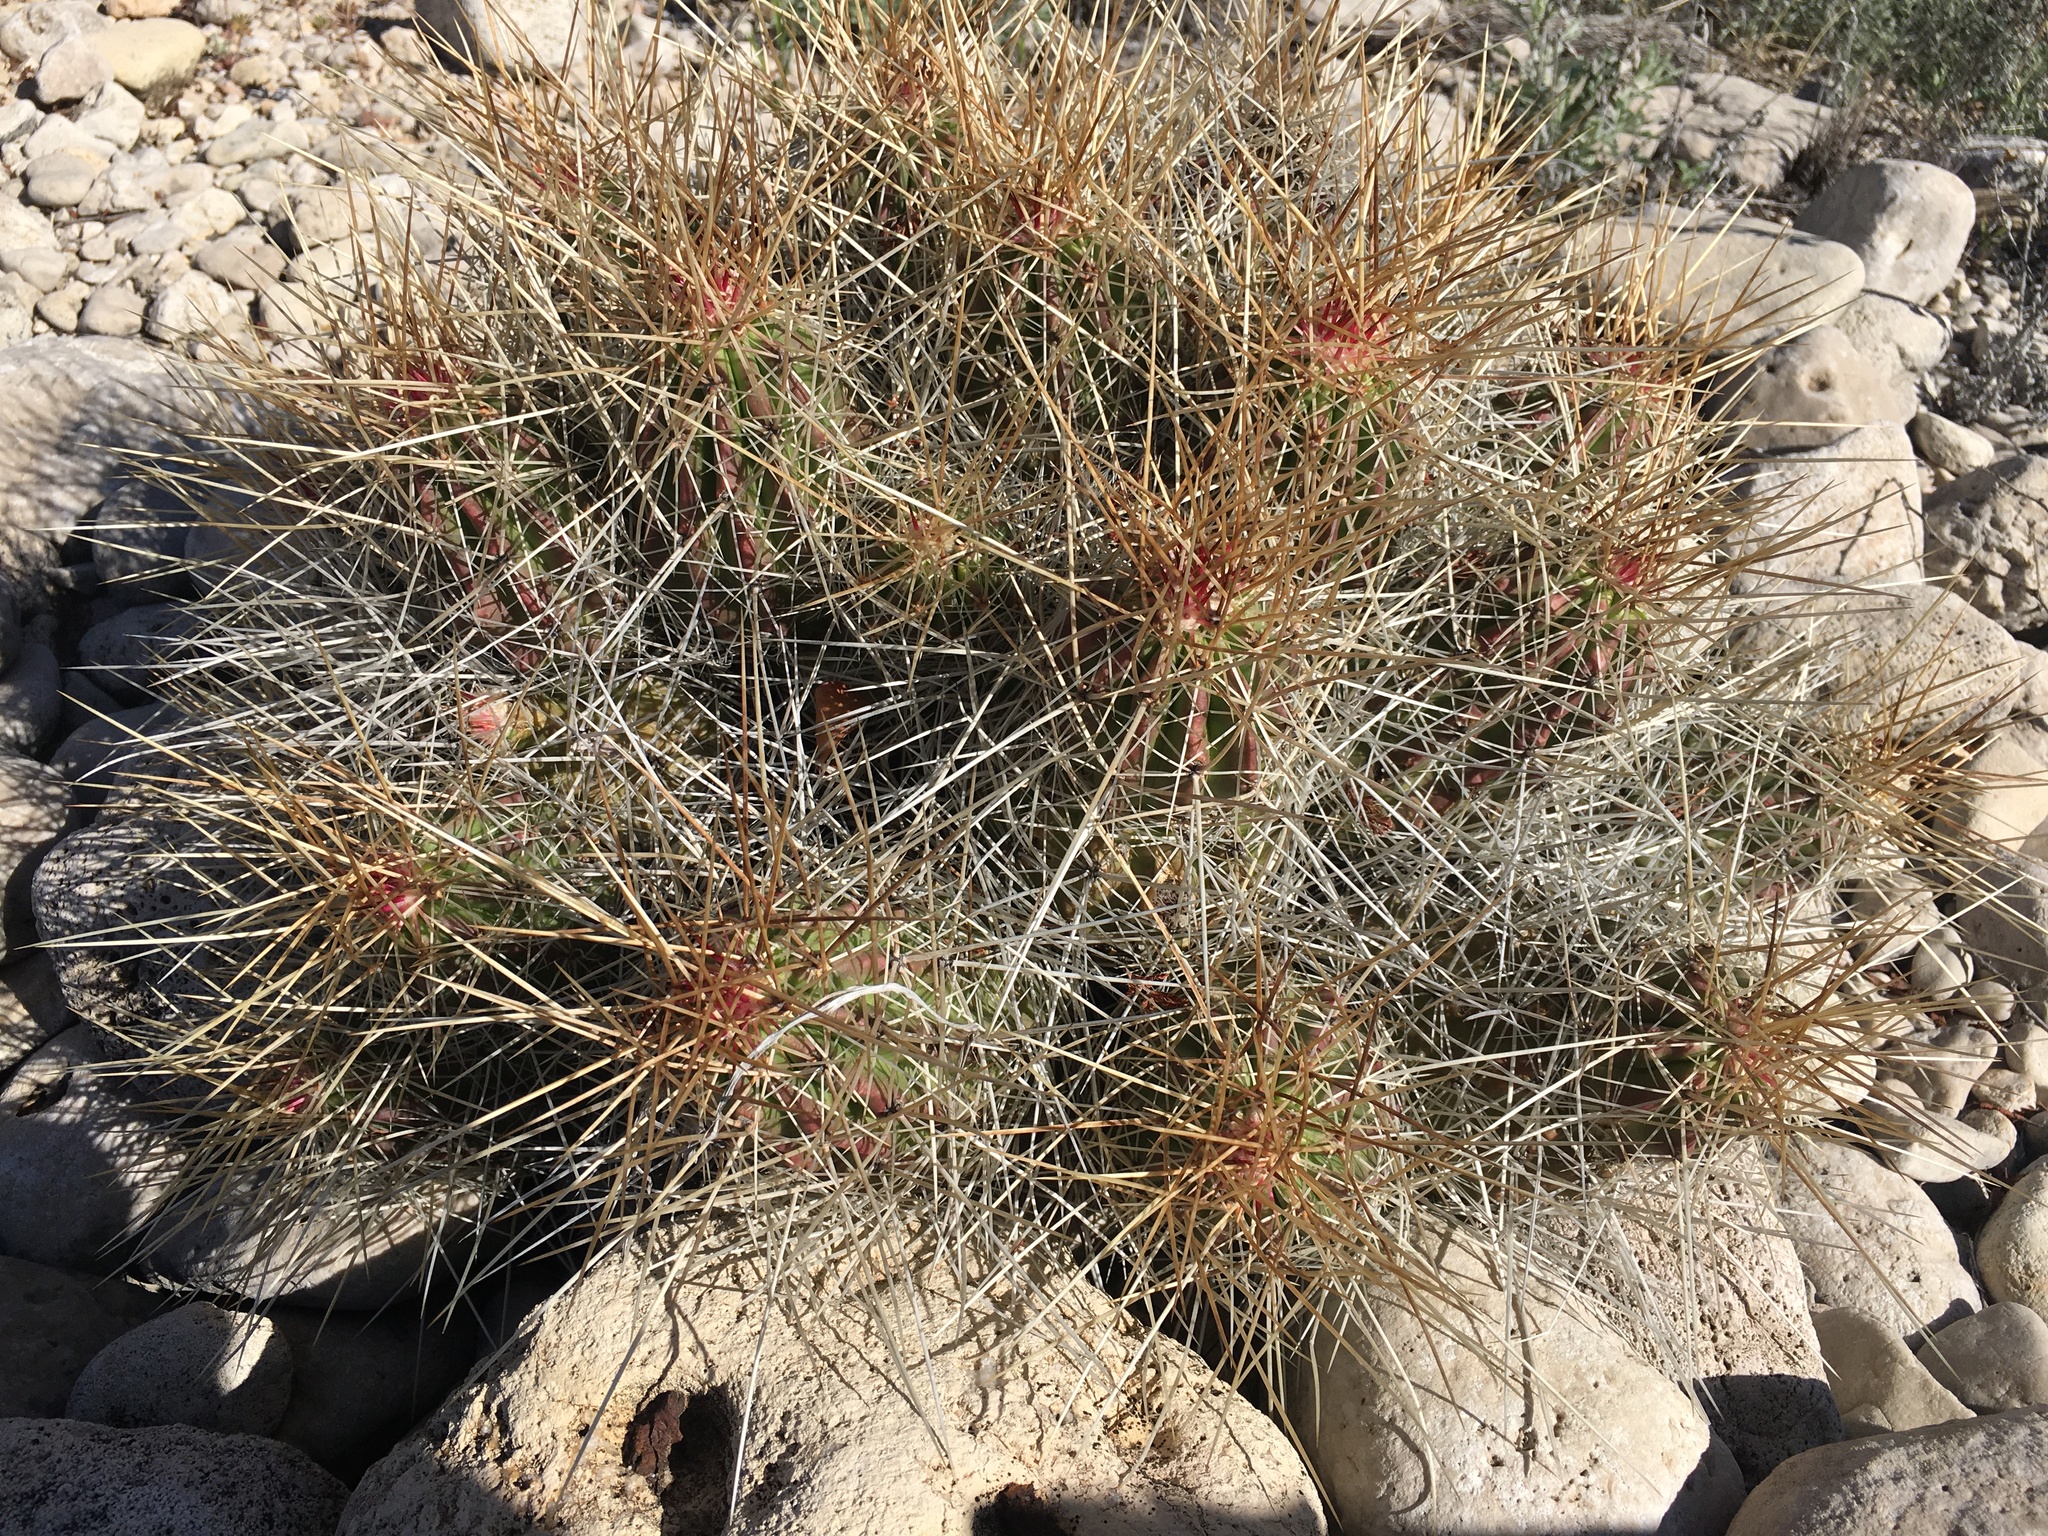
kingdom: Plantae
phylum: Tracheophyta
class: Magnoliopsida
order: Caryophyllales
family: Cactaceae
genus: Echinocereus
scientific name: Echinocereus stramineus
